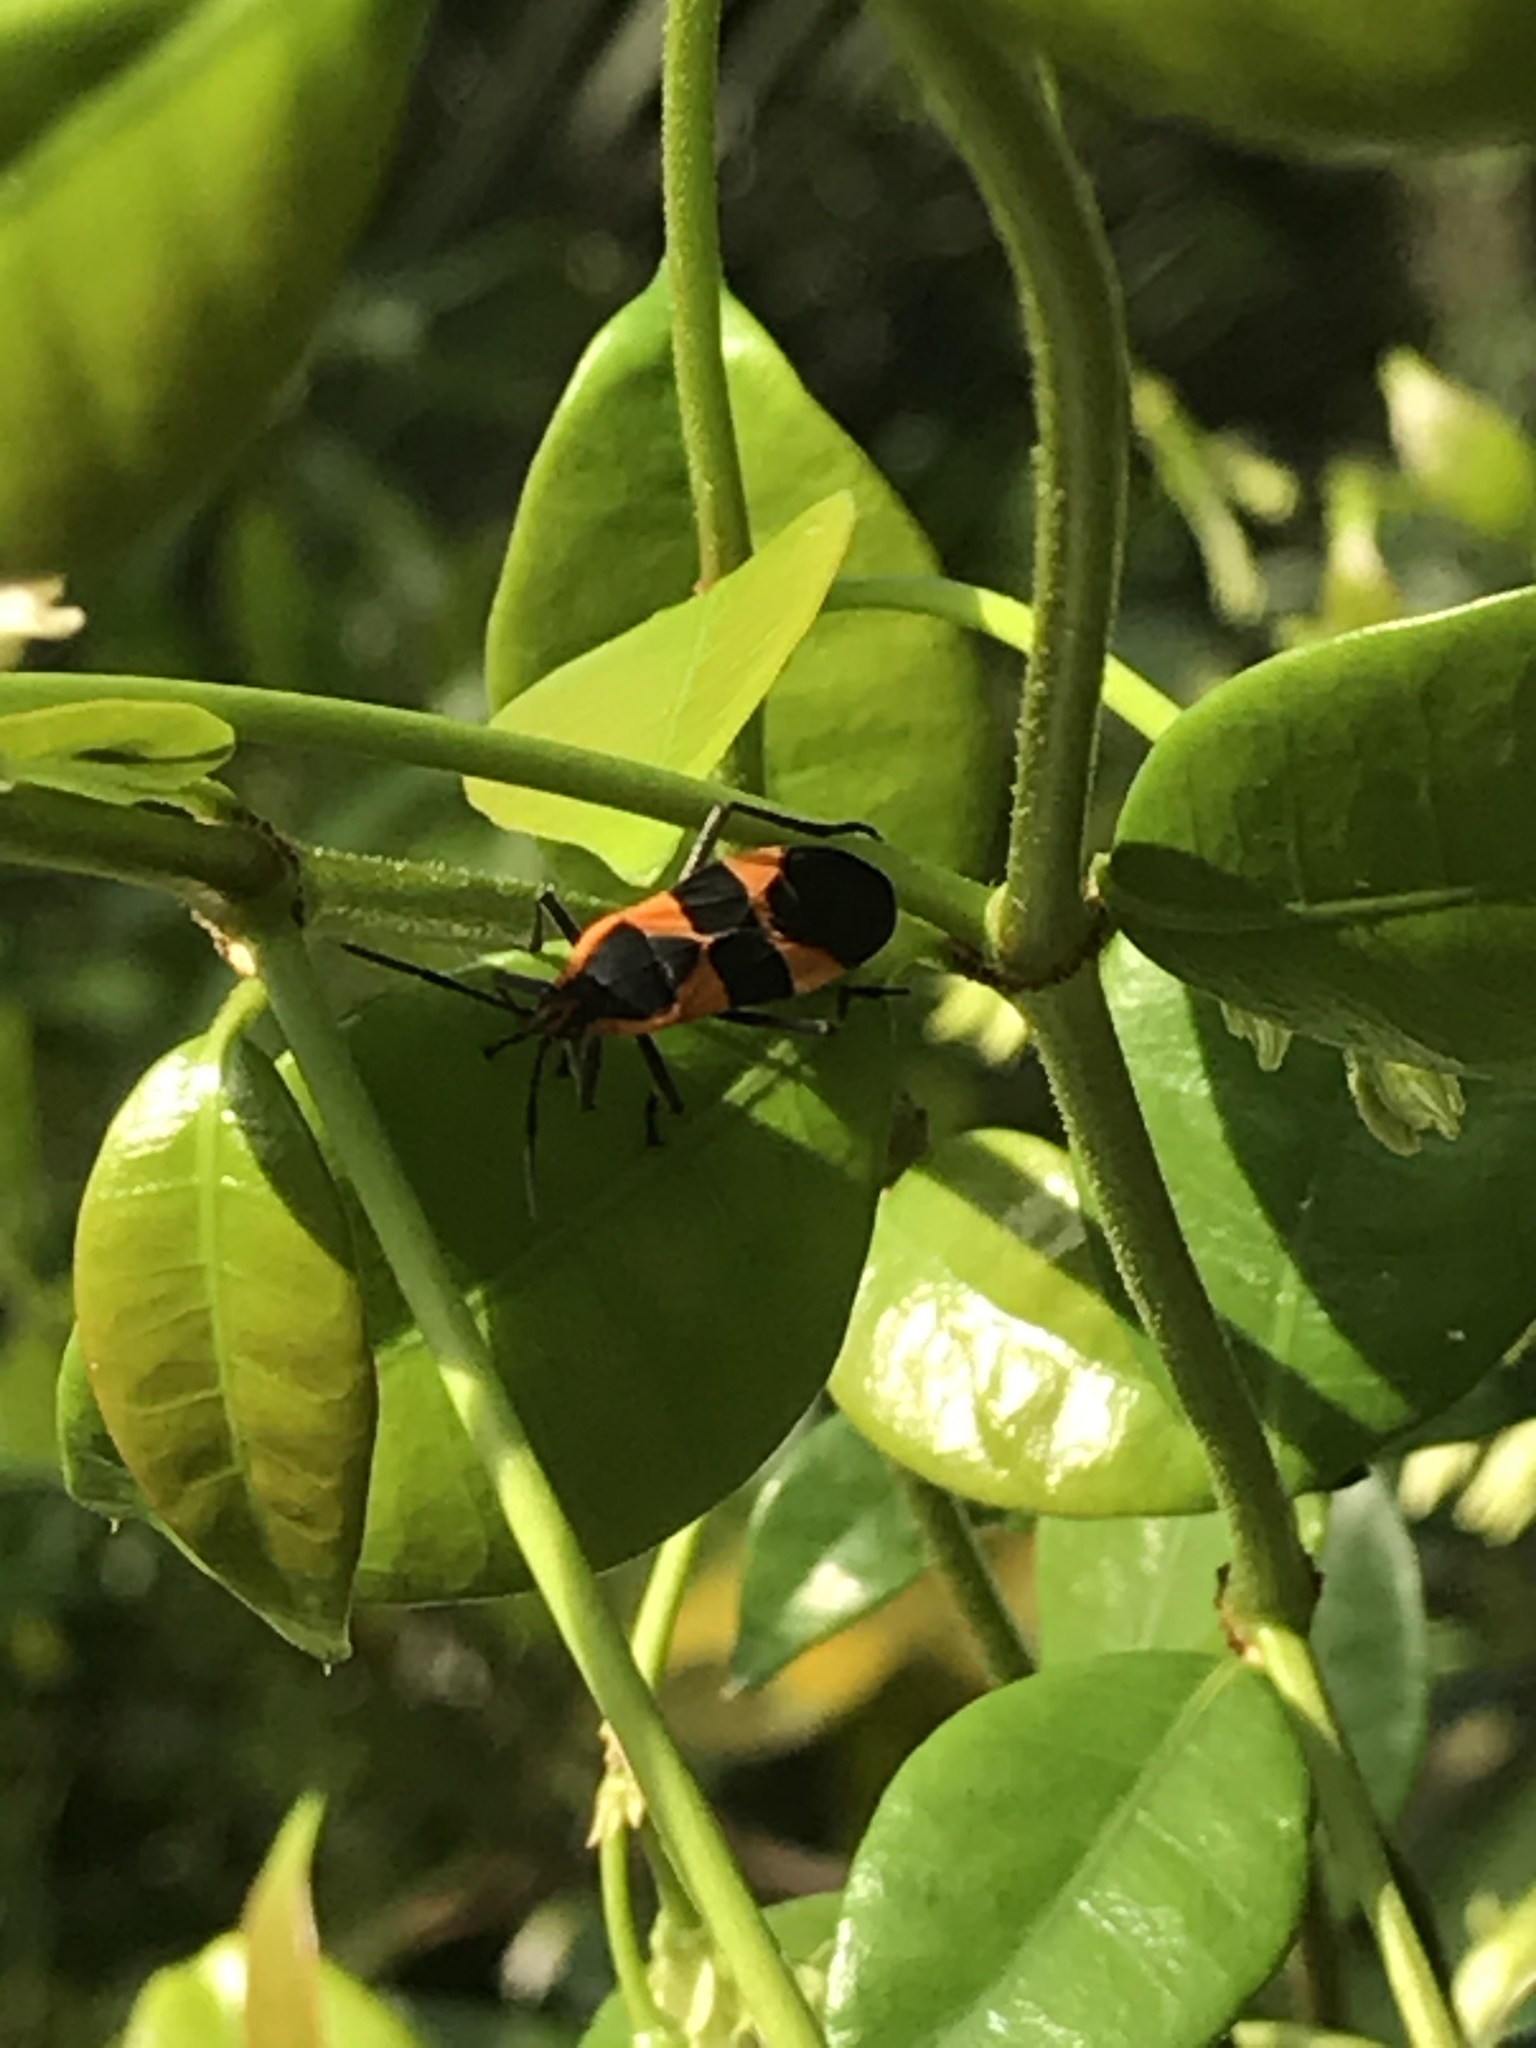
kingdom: Animalia
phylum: Arthropoda
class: Insecta
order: Hemiptera
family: Lygaeidae
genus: Oncopeltus
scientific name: Oncopeltus fasciatus
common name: Large milkweed bug
